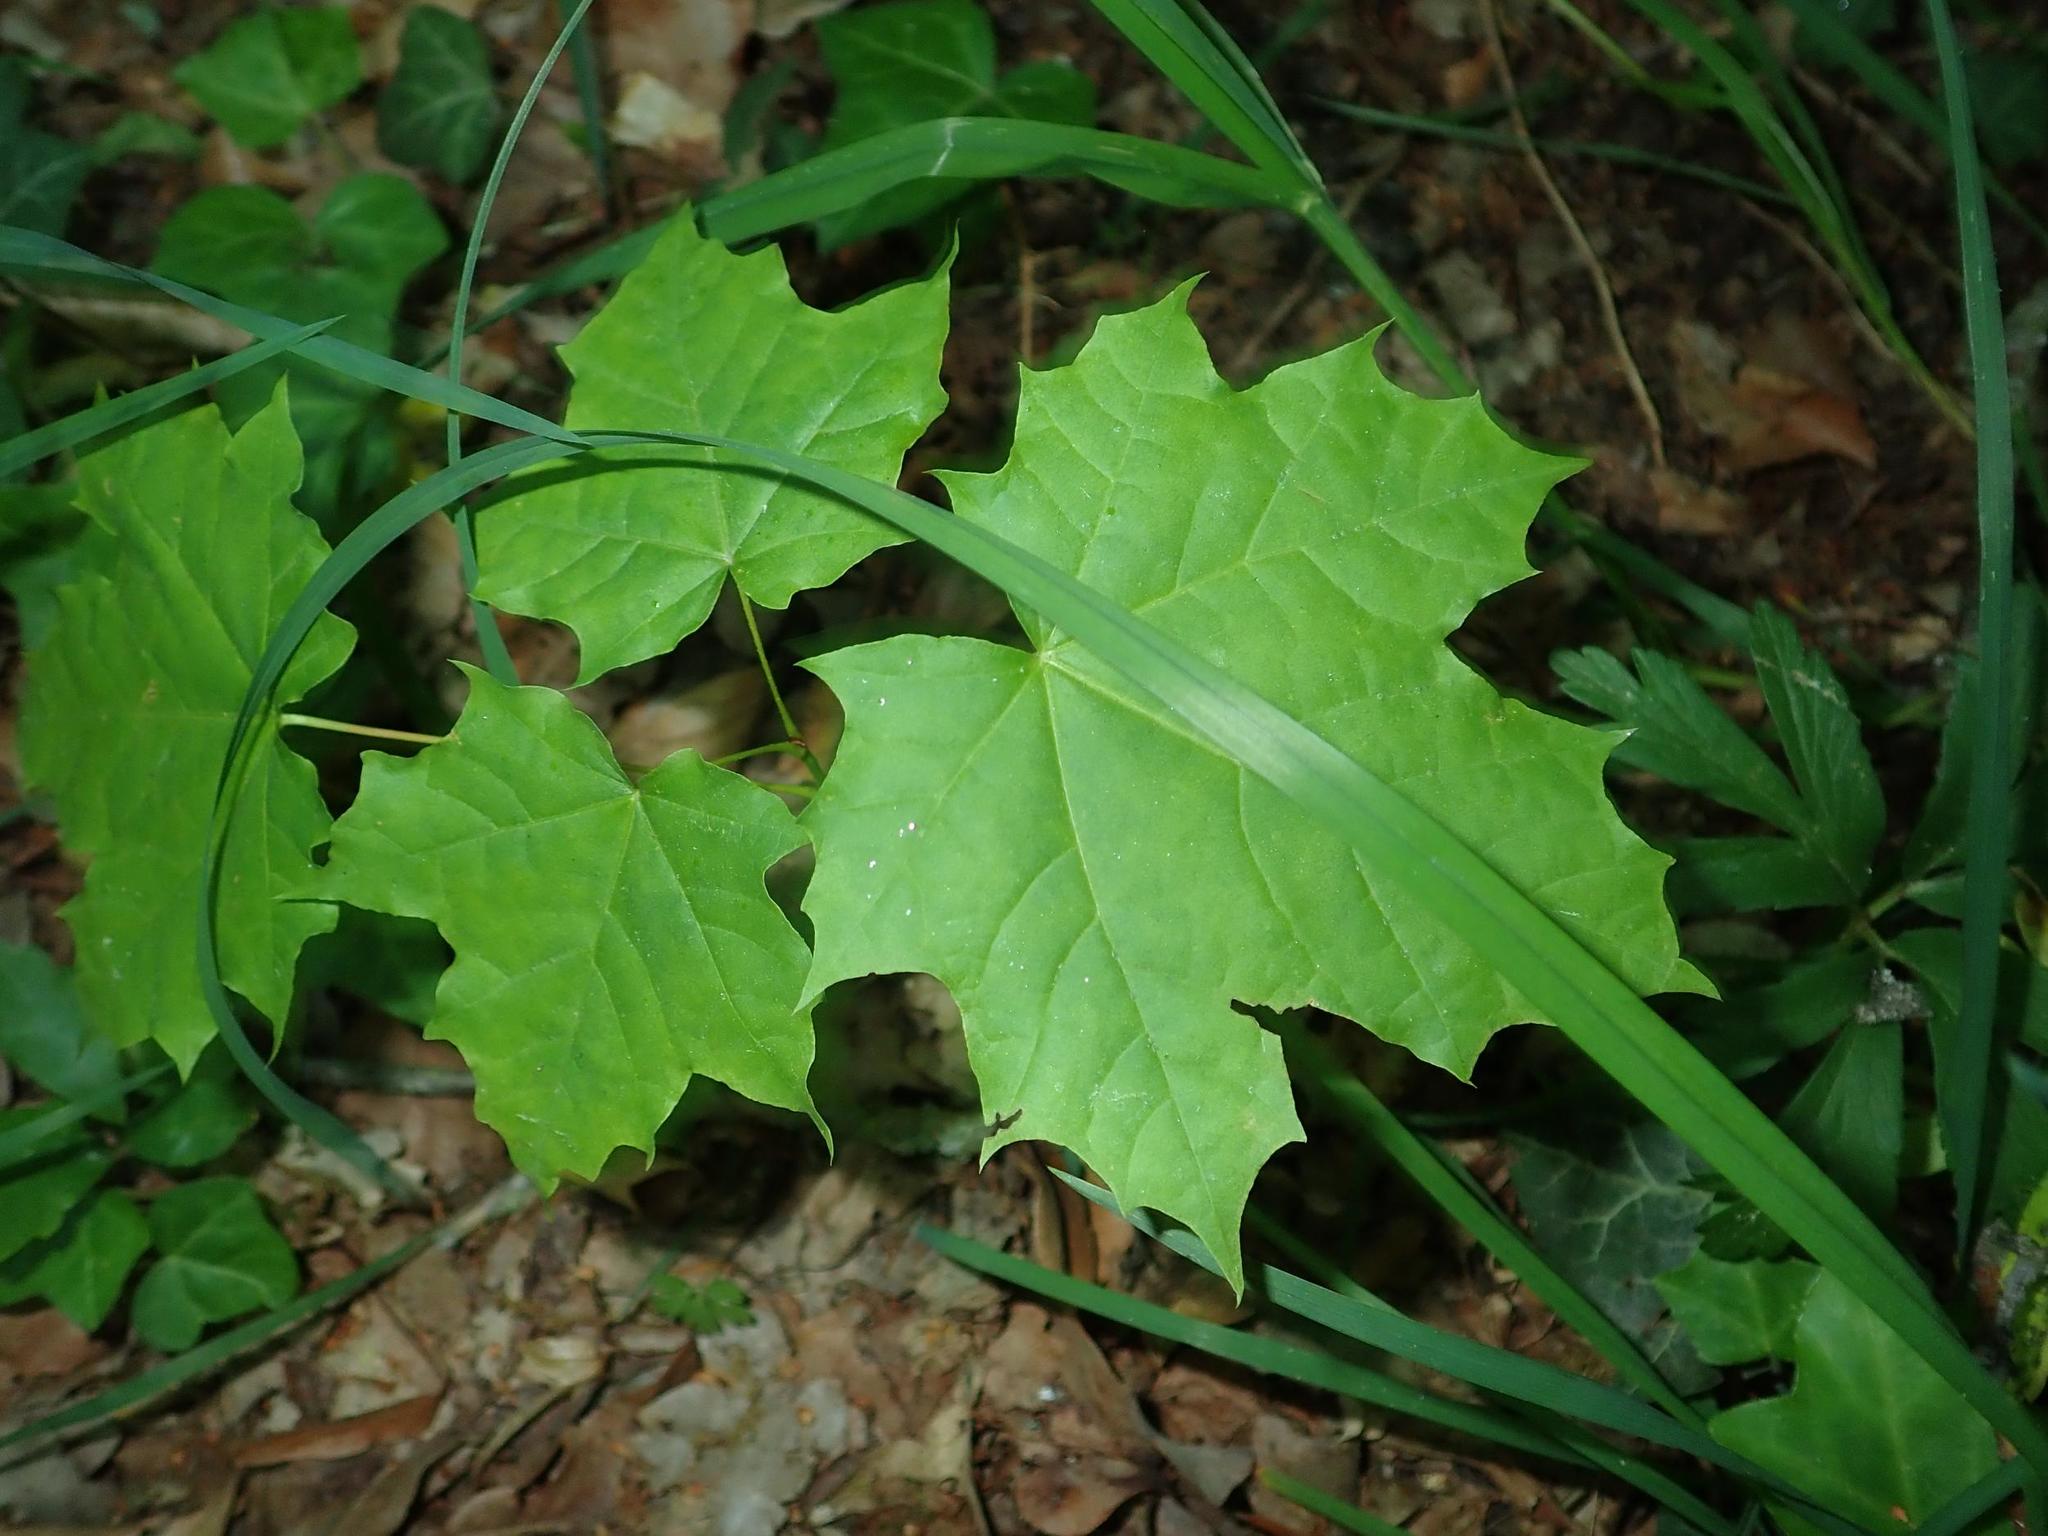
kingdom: Plantae
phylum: Tracheophyta
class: Magnoliopsida
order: Sapindales
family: Sapindaceae
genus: Acer
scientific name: Acer platanoides
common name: Norway maple
